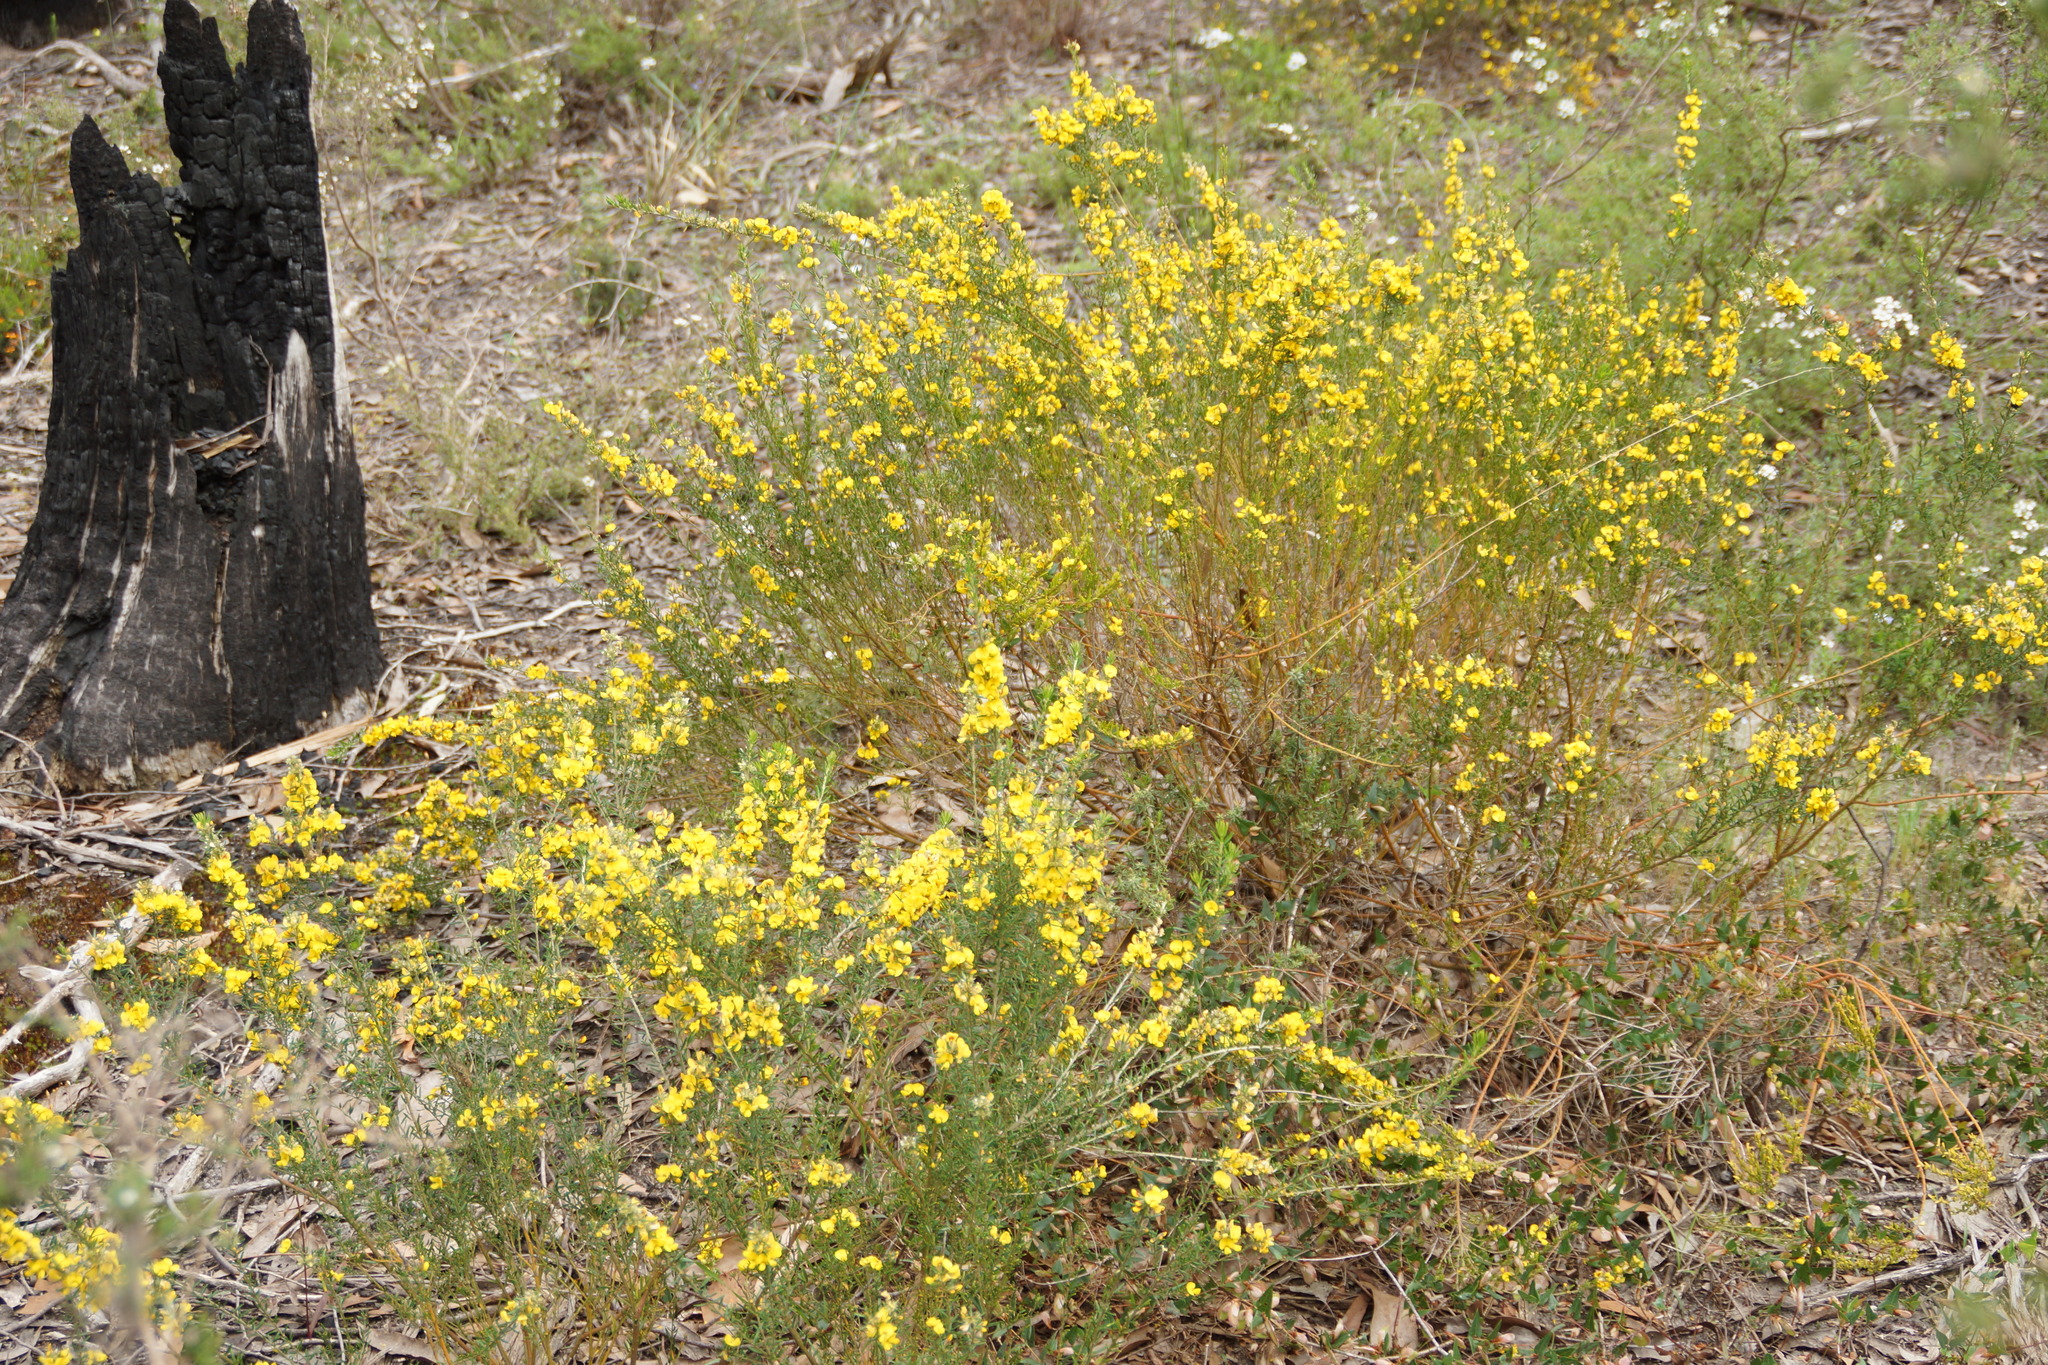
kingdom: Plantae
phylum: Tracheophyta
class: Magnoliopsida
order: Fabales
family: Fabaceae
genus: Aotus
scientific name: Aotus ericoides
